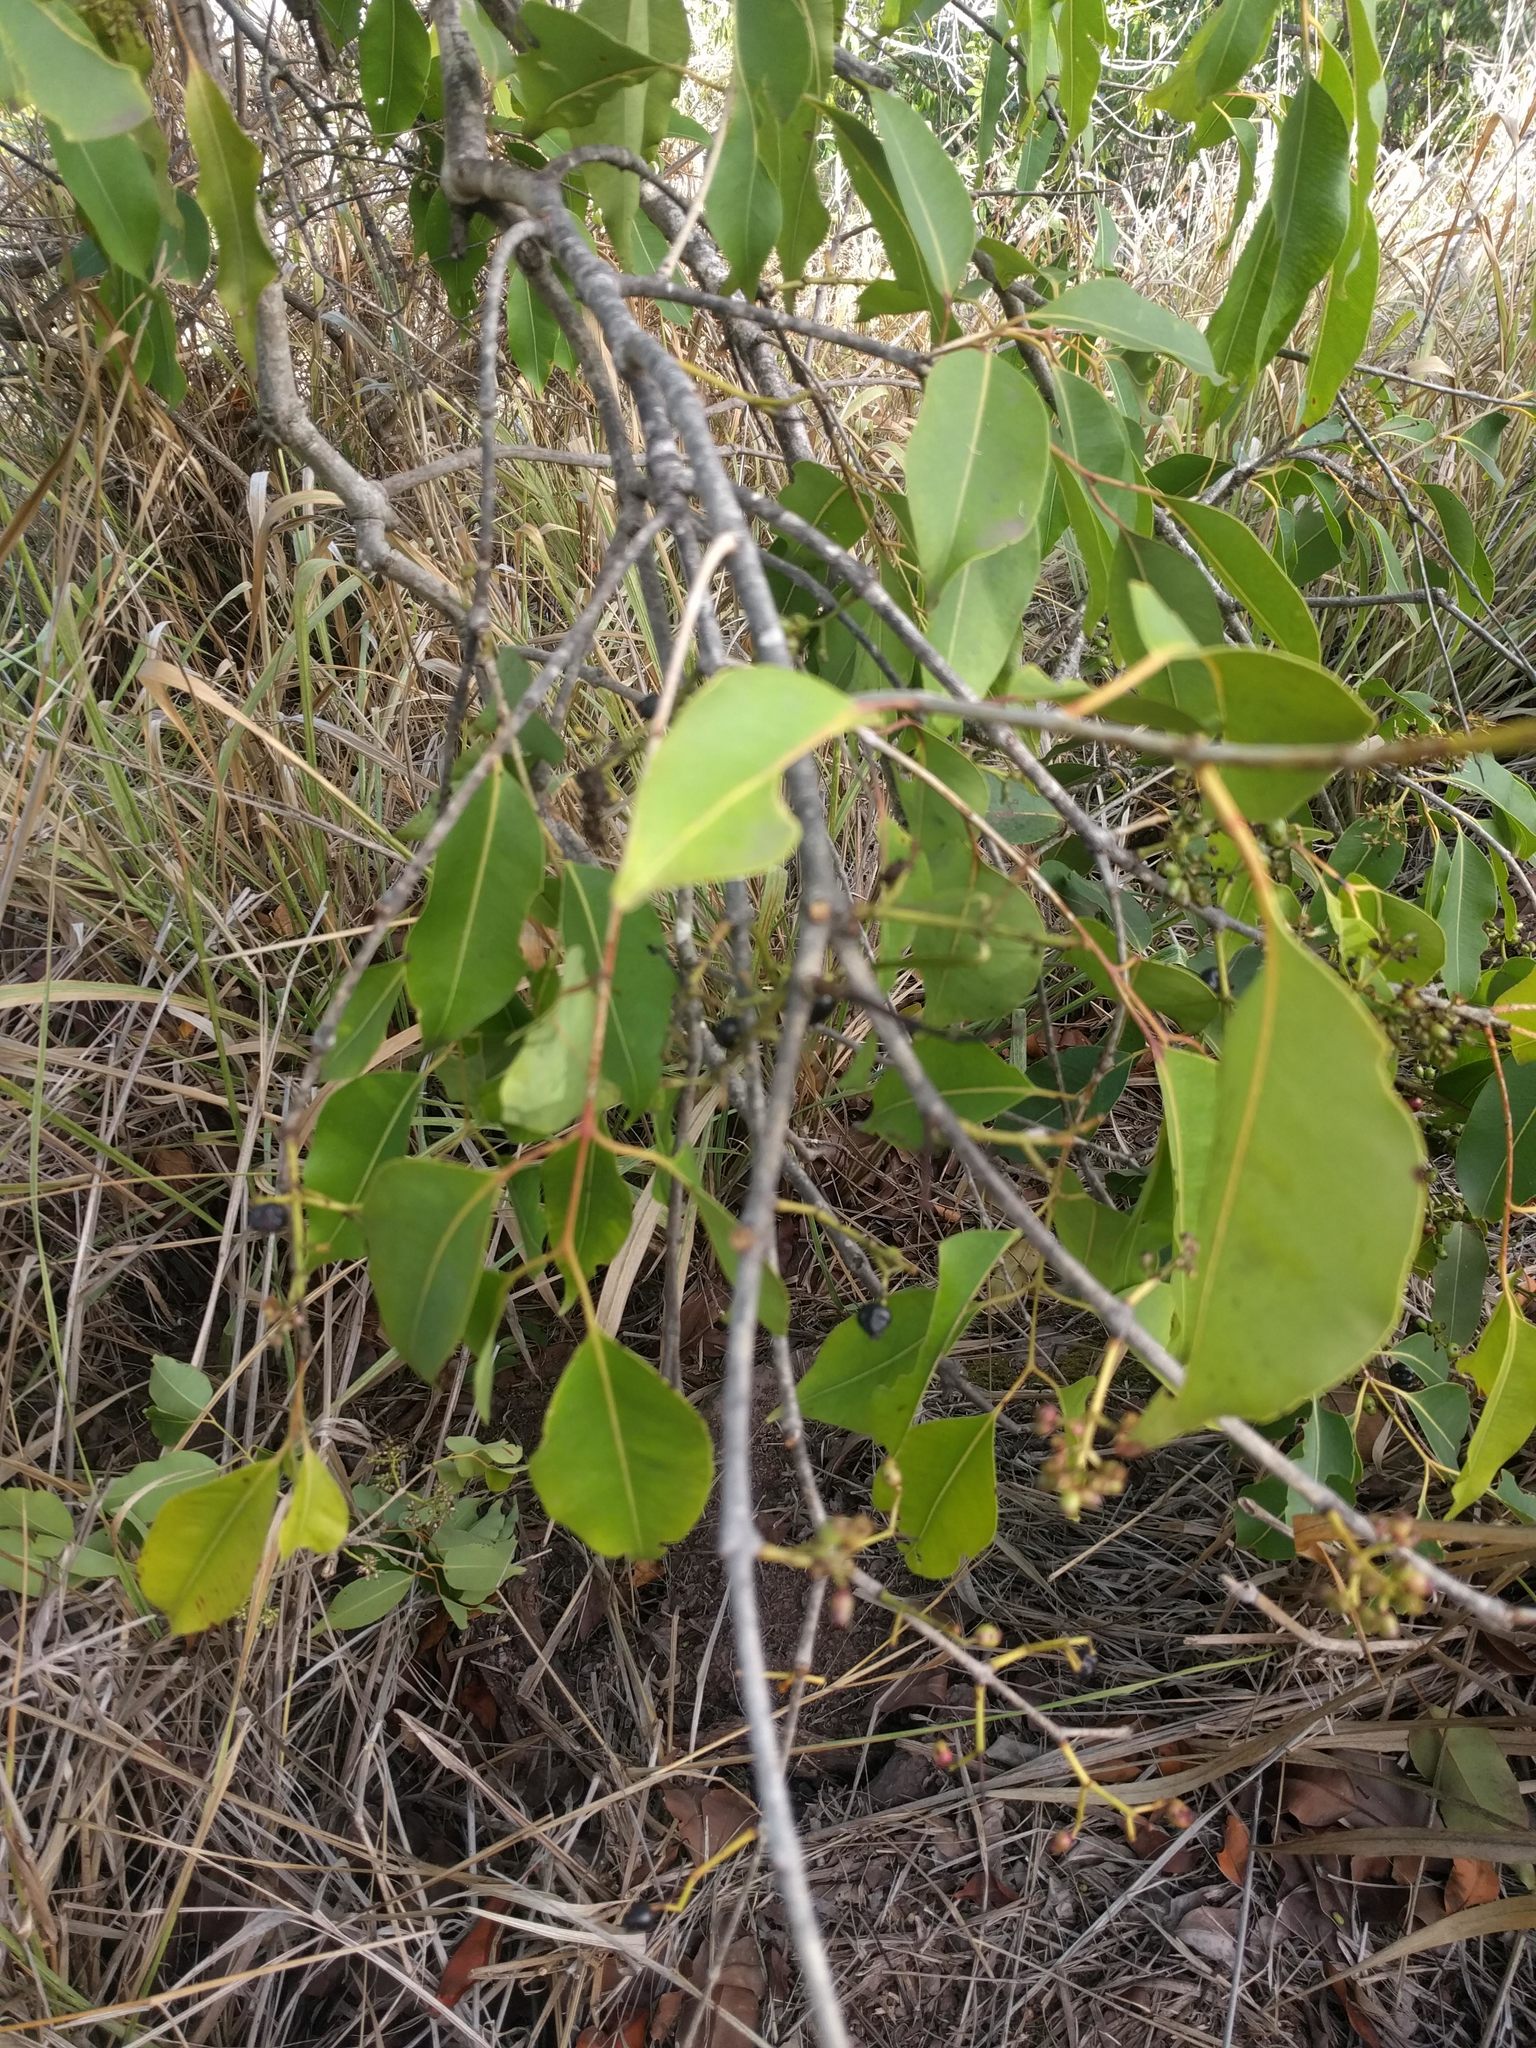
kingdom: Plantae
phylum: Tracheophyta
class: Magnoliopsida
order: Myrtales
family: Myrtaceae
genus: Syzygium
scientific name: Syzygium cumini
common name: Java plum
